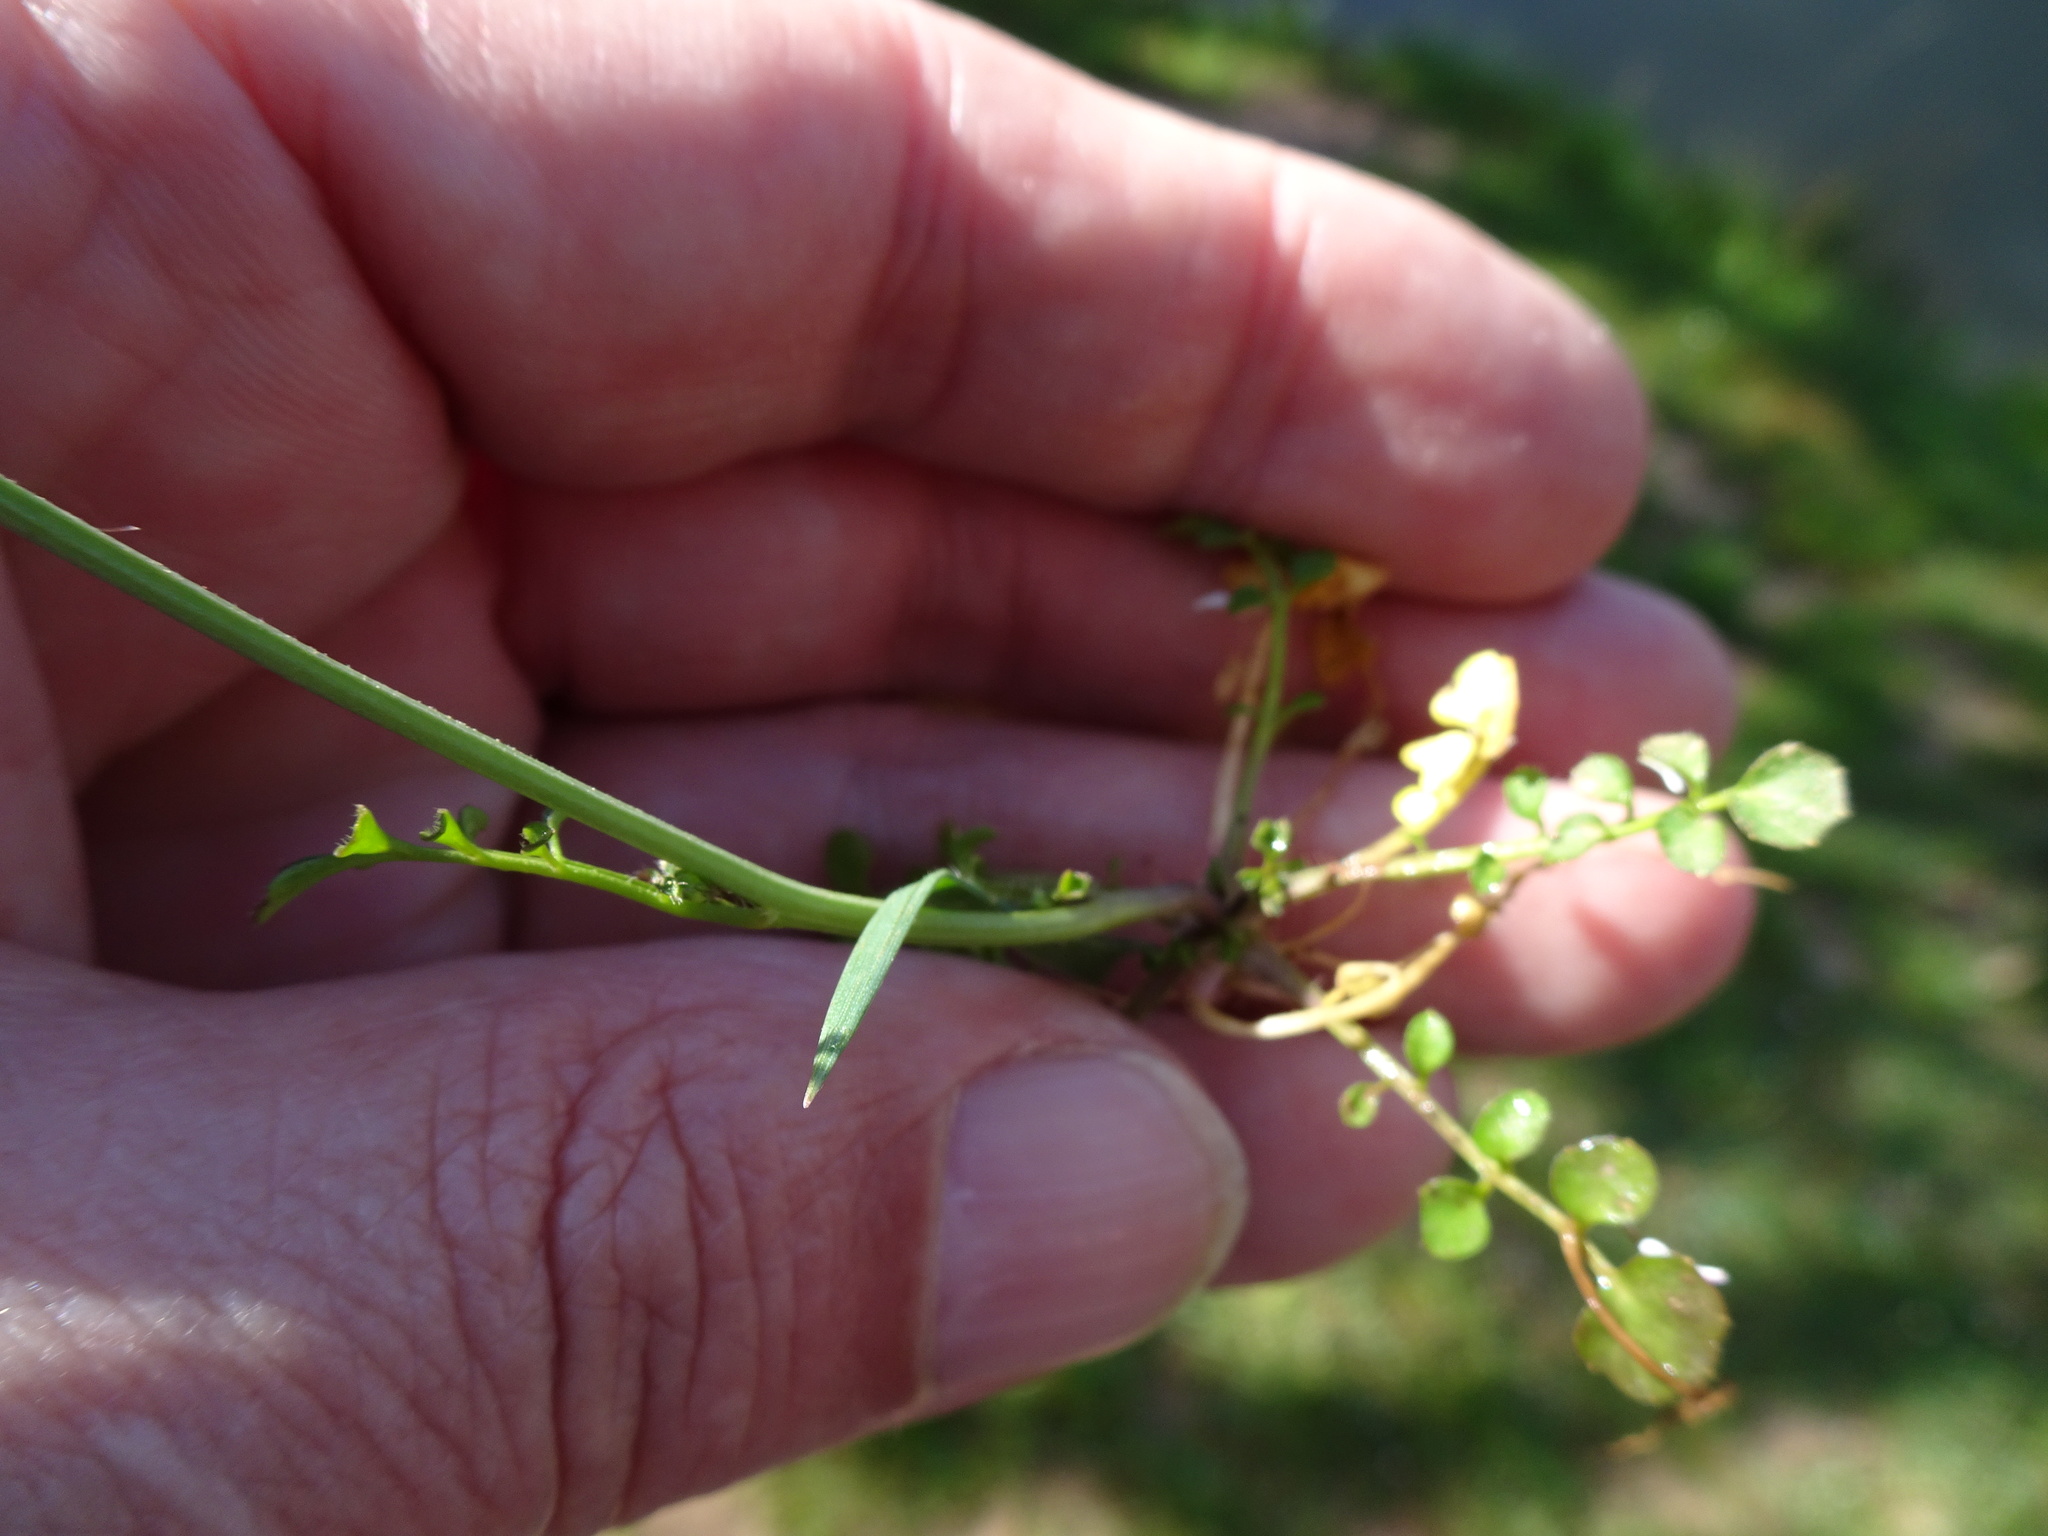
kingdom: Plantae
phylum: Tracheophyta
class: Magnoliopsida
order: Brassicales
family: Brassicaceae
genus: Cardamine
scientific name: Cardamine flexuosa
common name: Woodland bittercress
